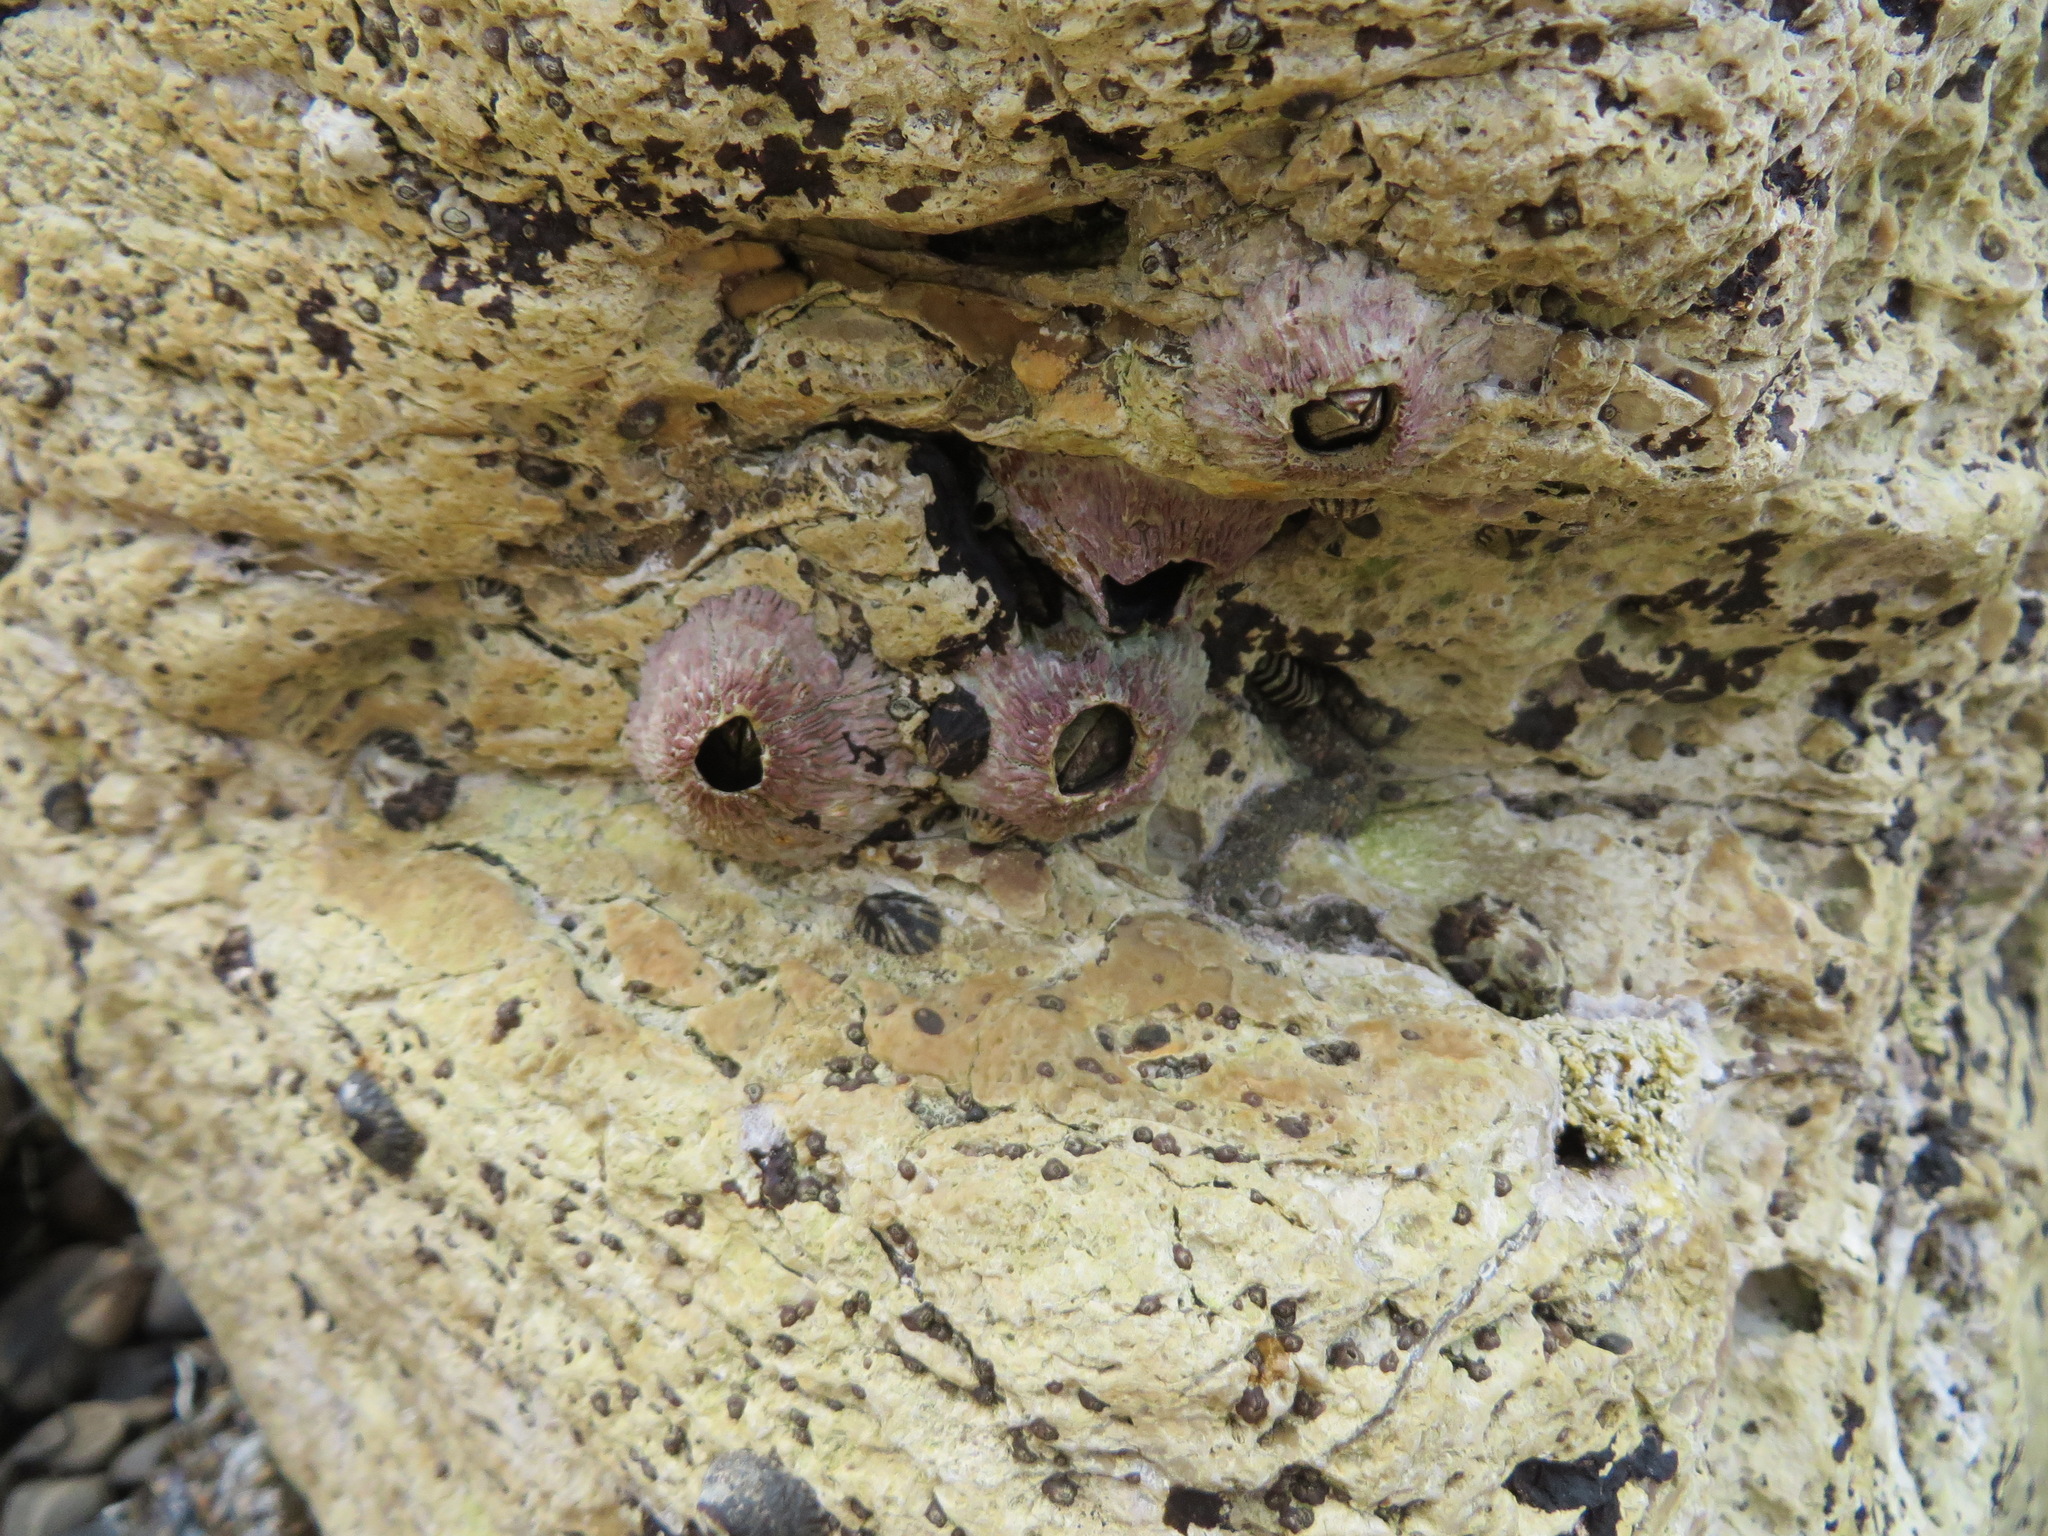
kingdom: Animalia
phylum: Arthropoda
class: Maxillopoda
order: Sessilia
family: Tetraclitidae
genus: Tetraclita
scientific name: Tetraclita rubescens
